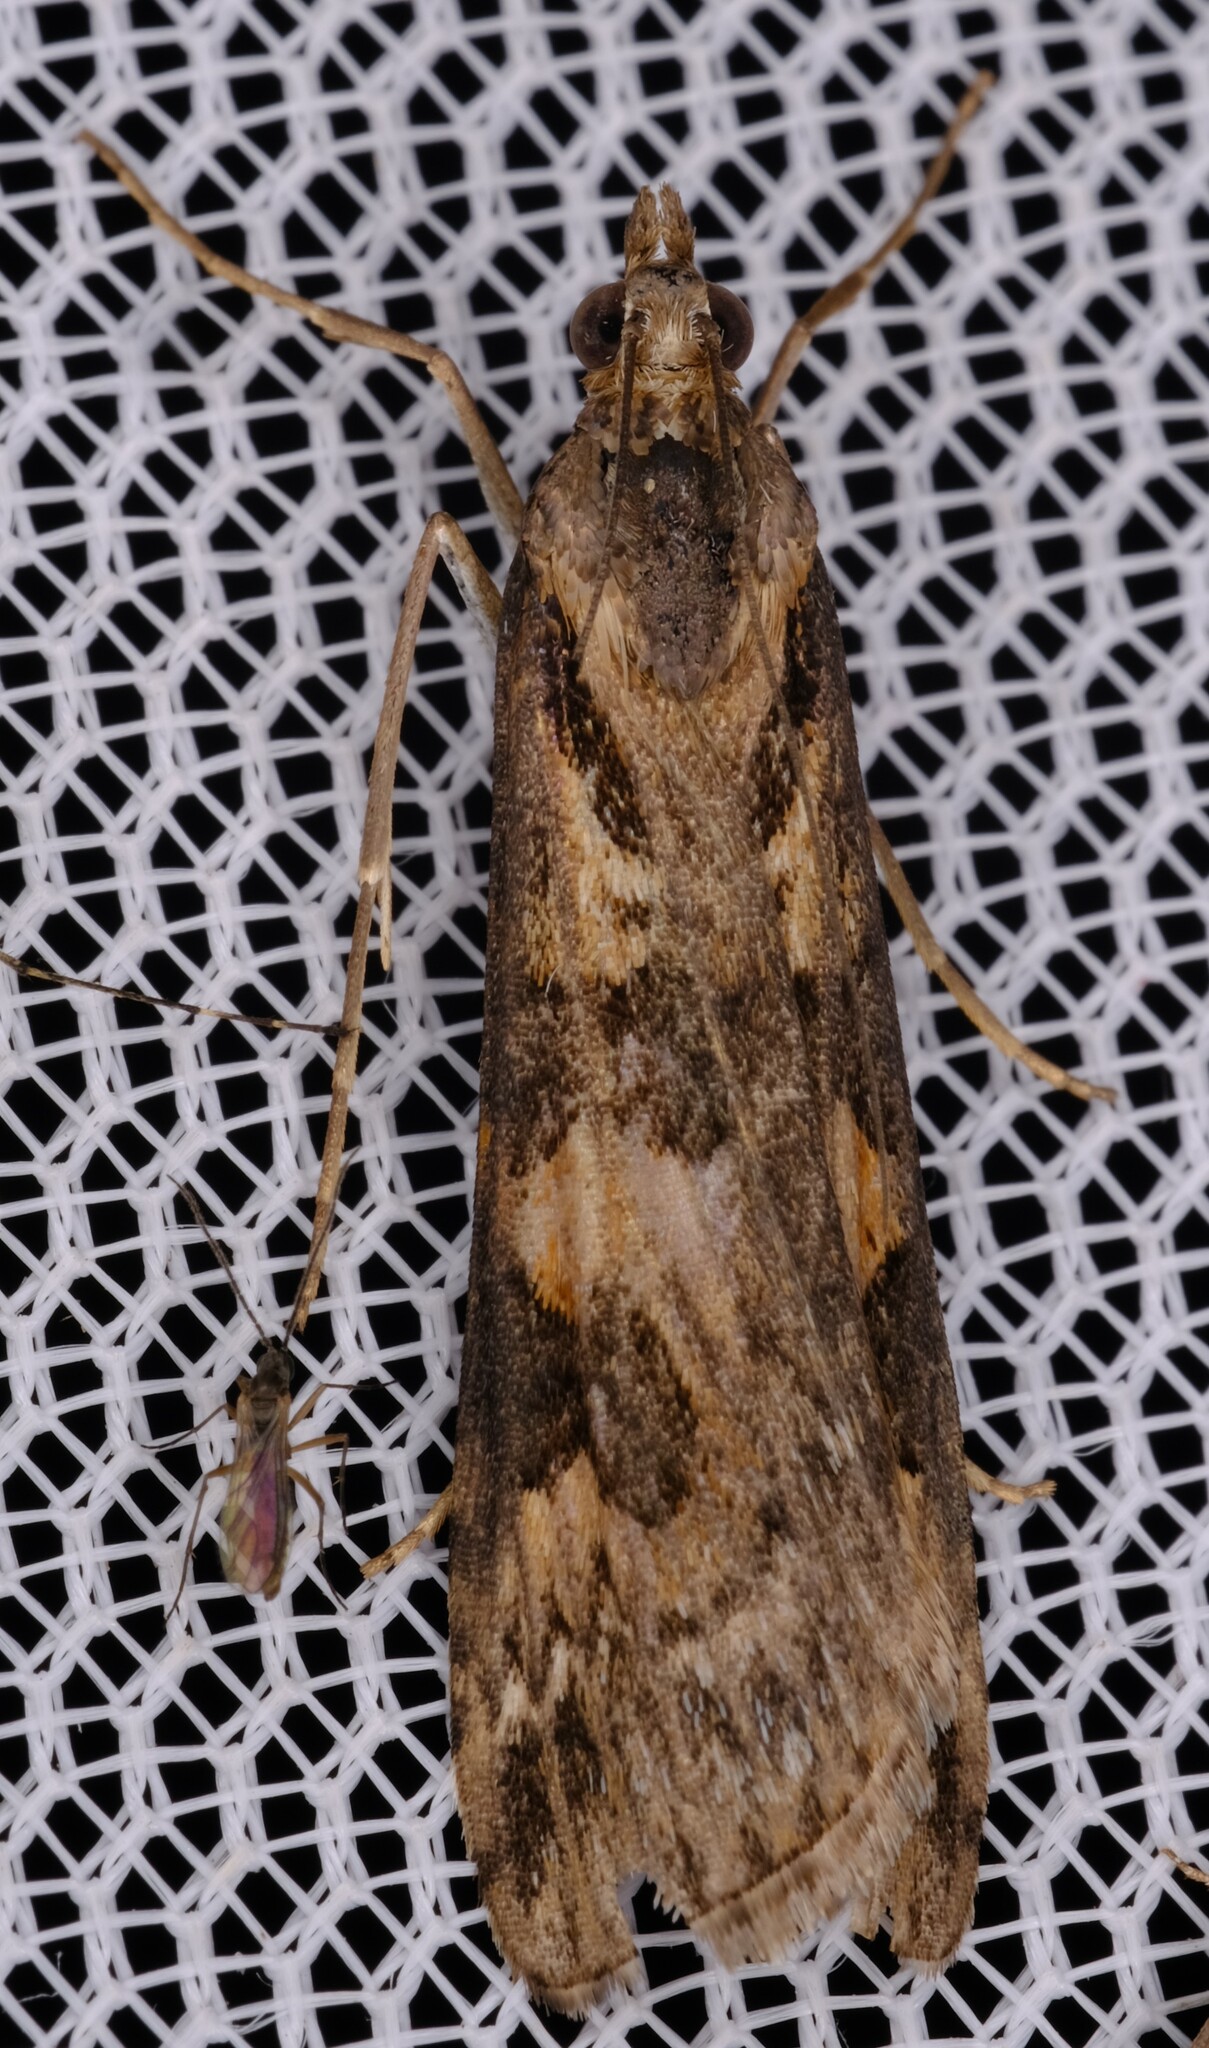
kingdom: Animalia
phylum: Arthropoda
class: Insecta
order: Lepidoptera
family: Crambidae
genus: Nomophila
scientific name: Nomophila corticalis
